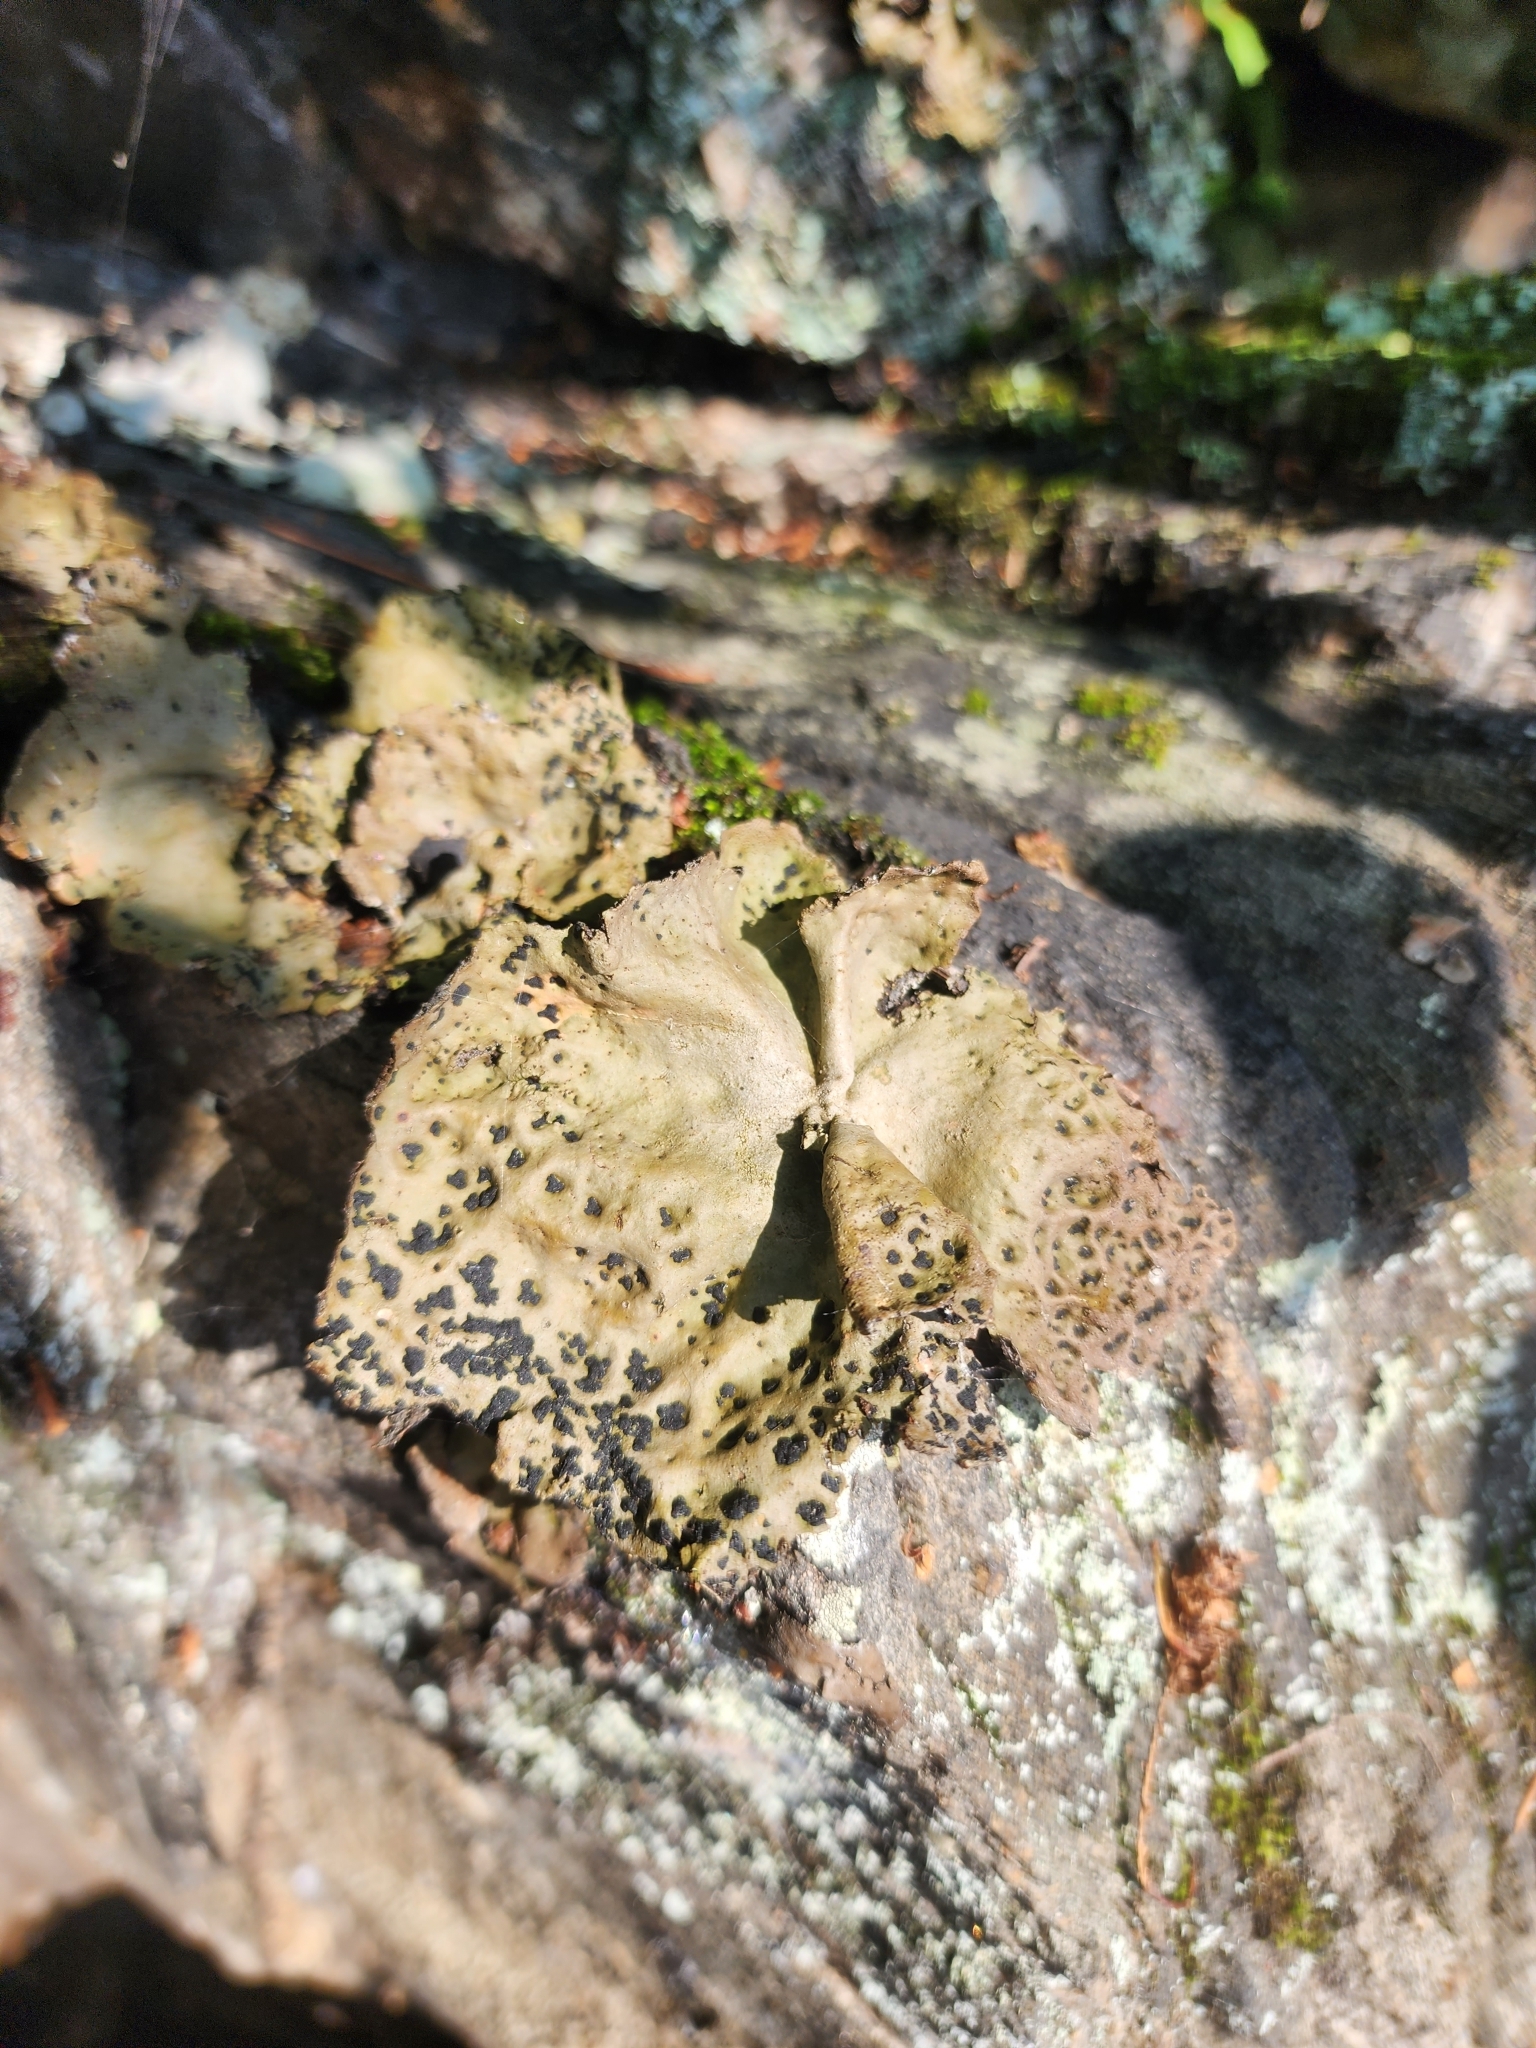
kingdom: Fungi
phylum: Ascomycota
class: Lecanoromycetes
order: Umbilicariales
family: Umbilicariaceae
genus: Umbilicaria
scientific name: Umbilicaria muhlenbergii
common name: Lesser rocktripe
